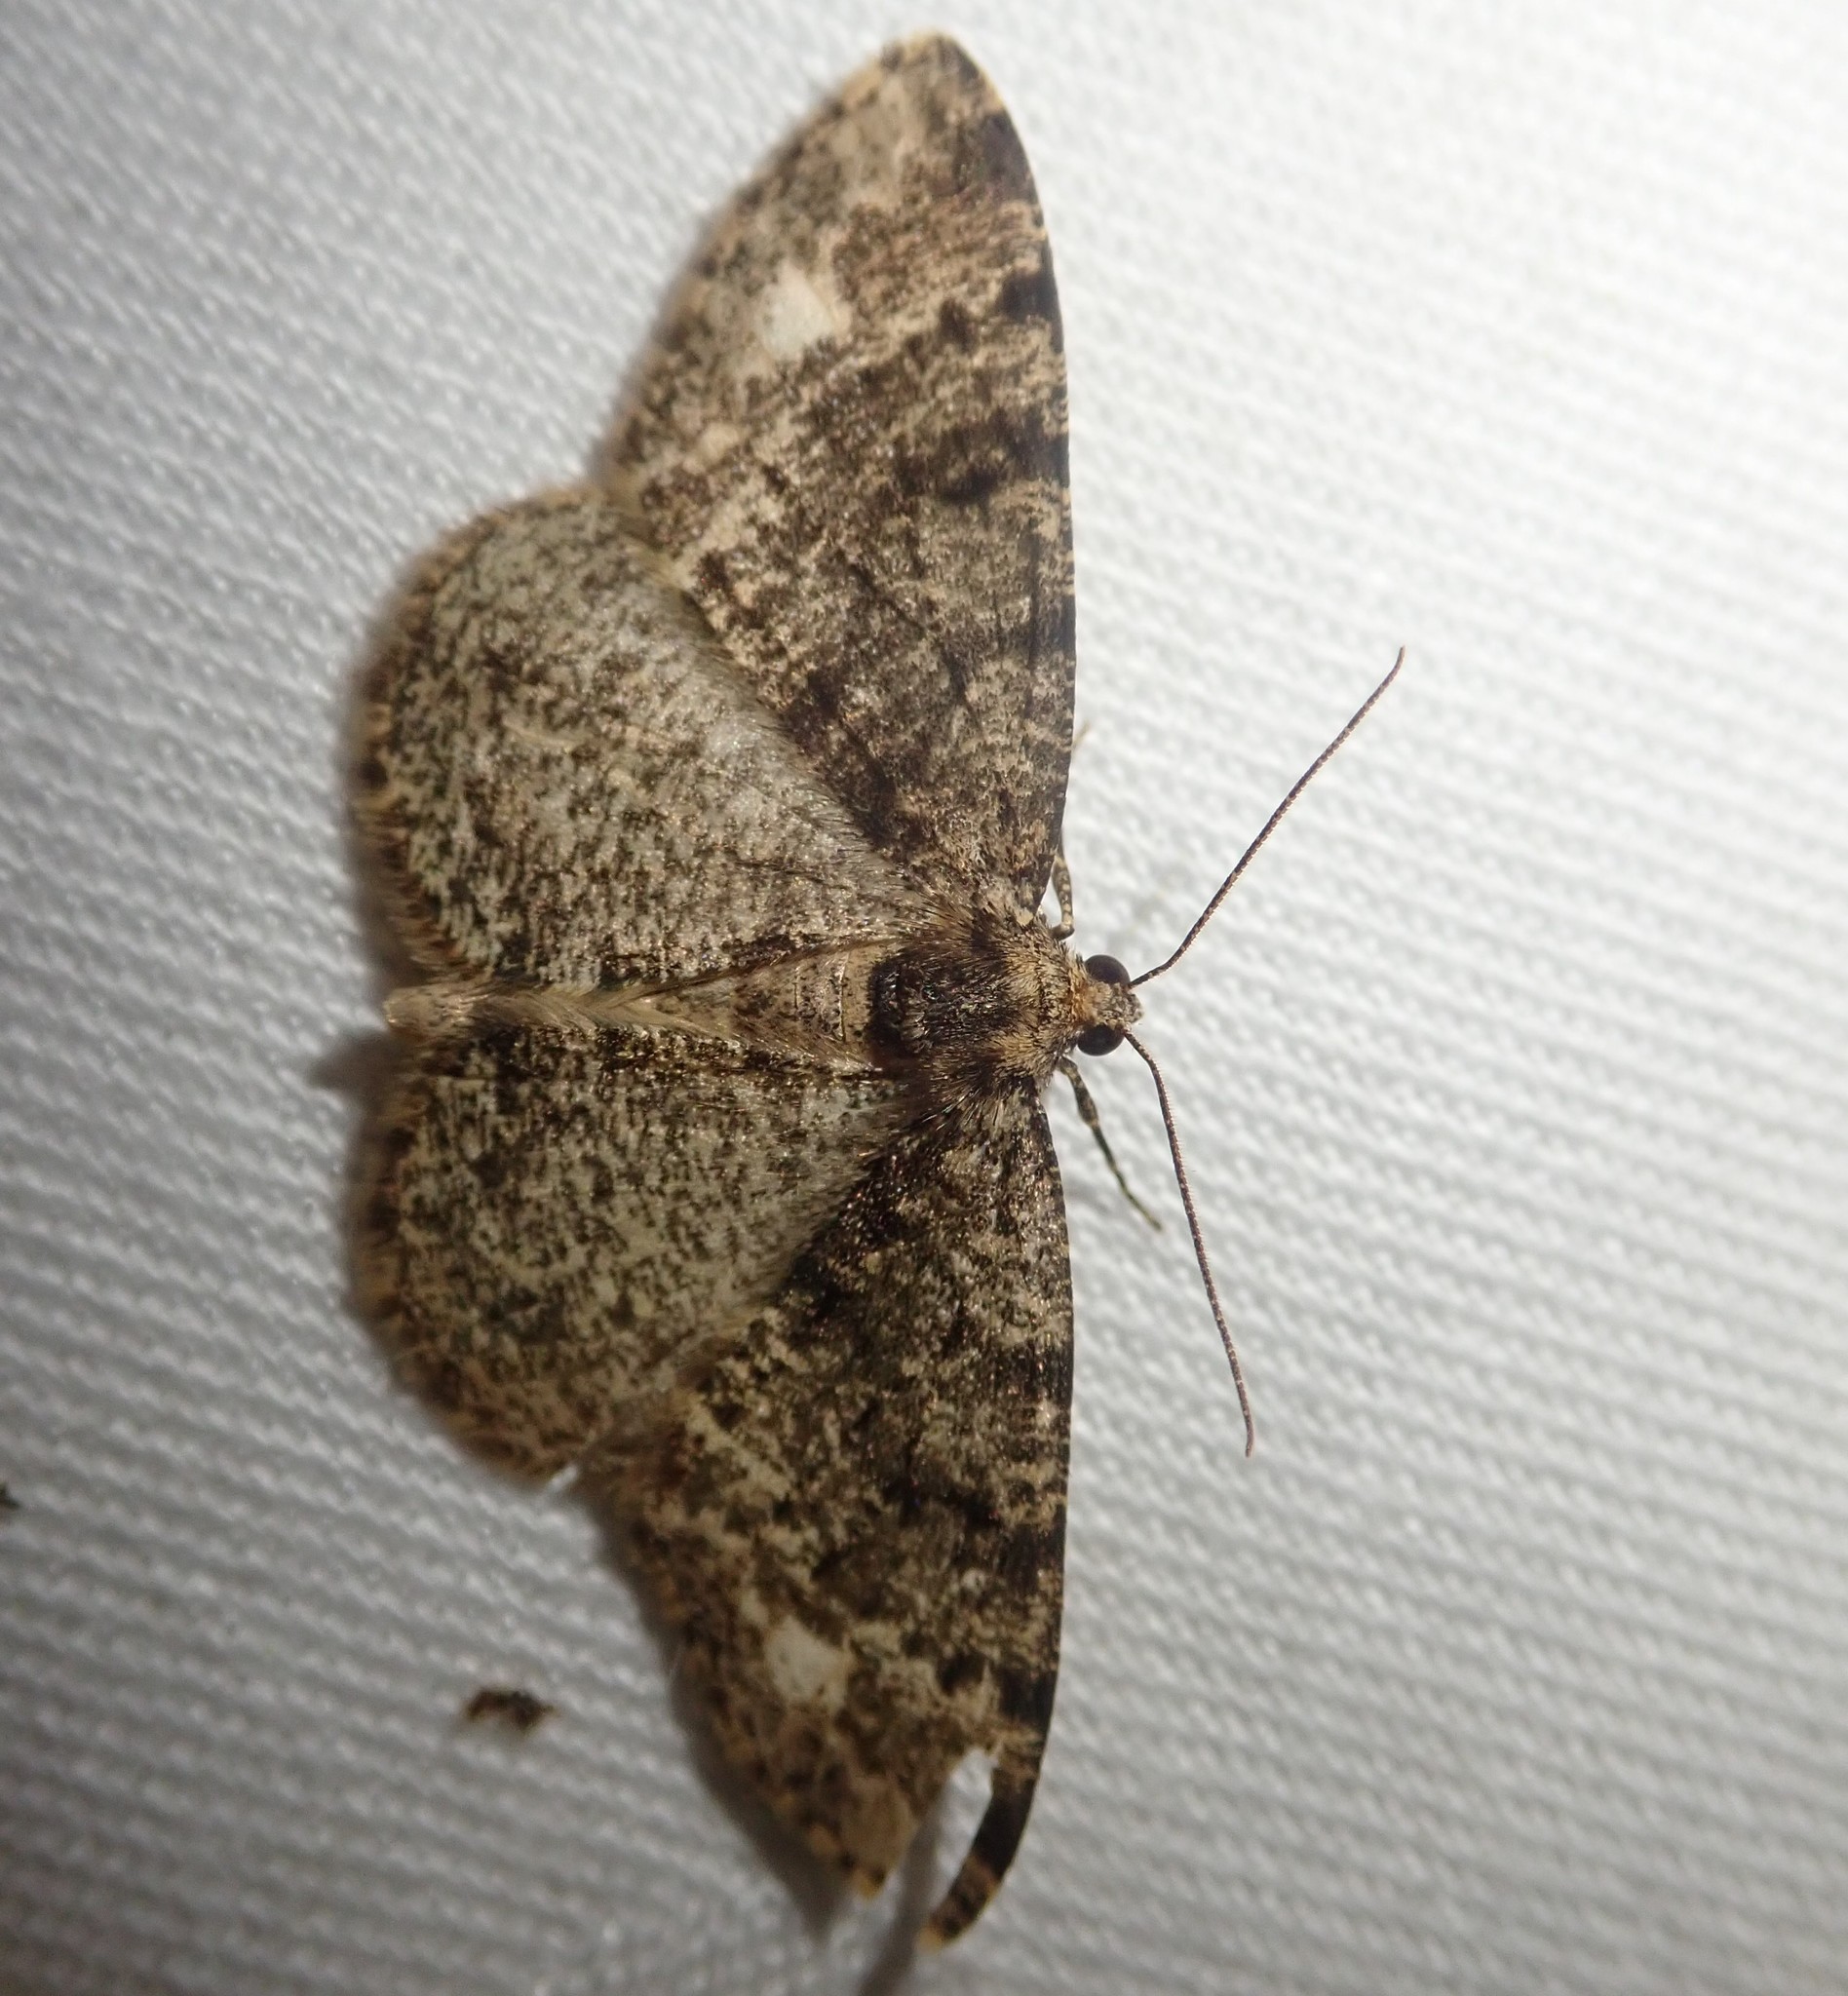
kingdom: Animalia
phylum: Arthropoda
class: Insecta
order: Lepidoptera
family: Geometridae
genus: Parectropis
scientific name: Parectropis similaria
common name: Brindled white-spot
